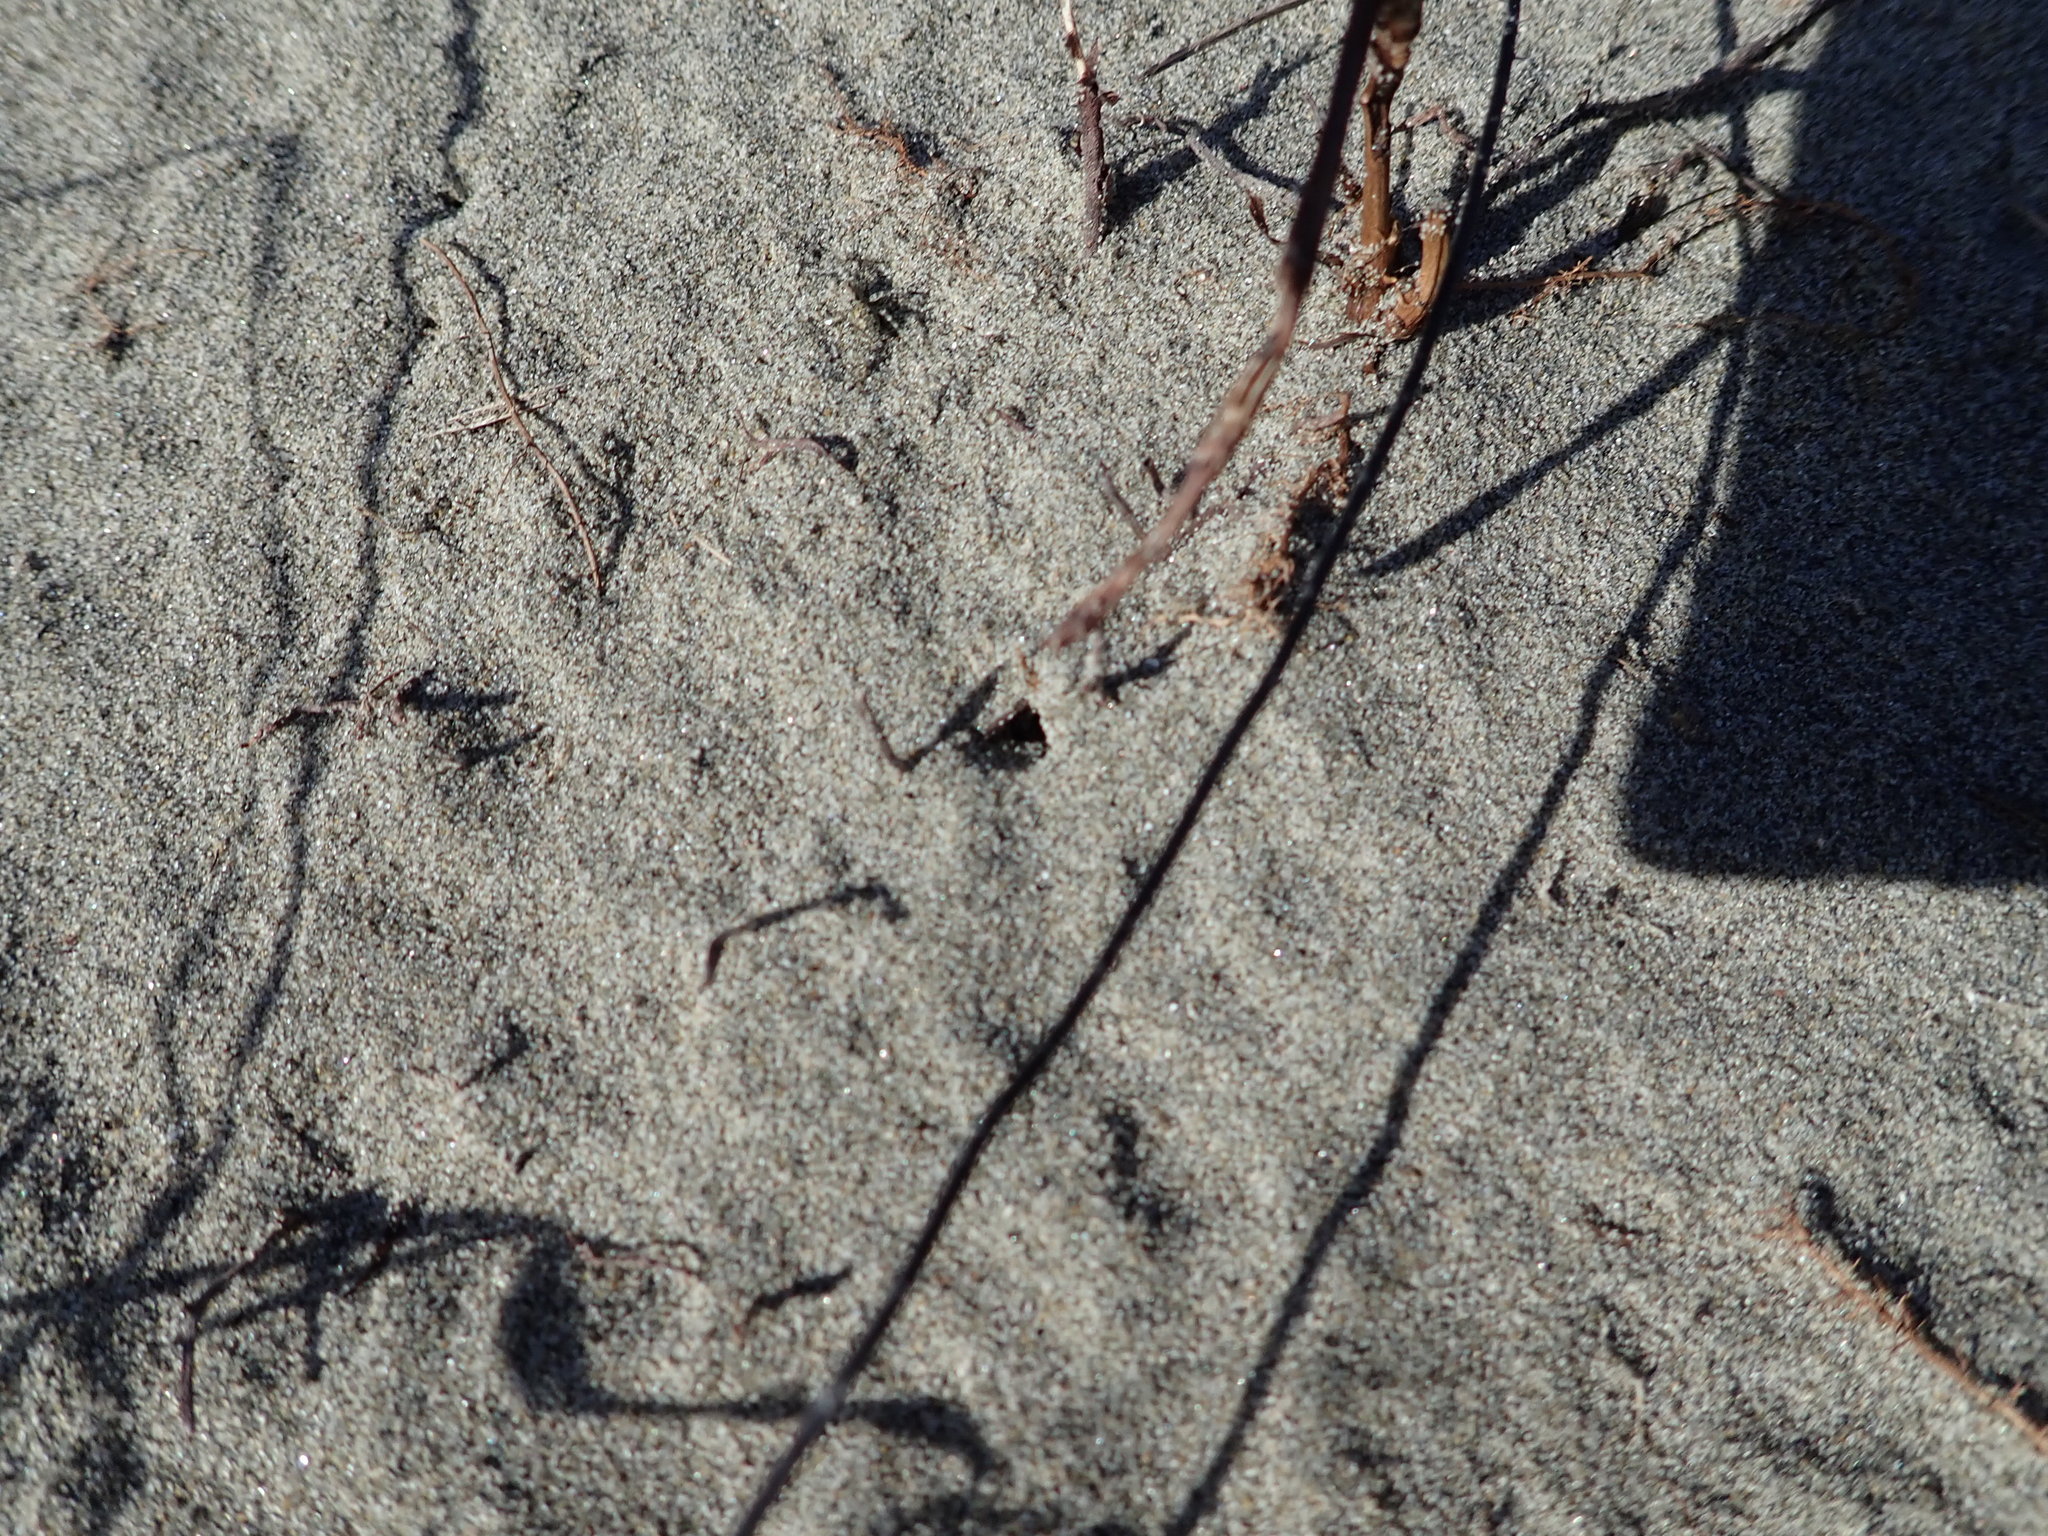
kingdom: Animalia
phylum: Arthropoda
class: Arachnida
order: Araneae
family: Lycosidae
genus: Anoteropsis
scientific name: Anoteropsis litoralis
